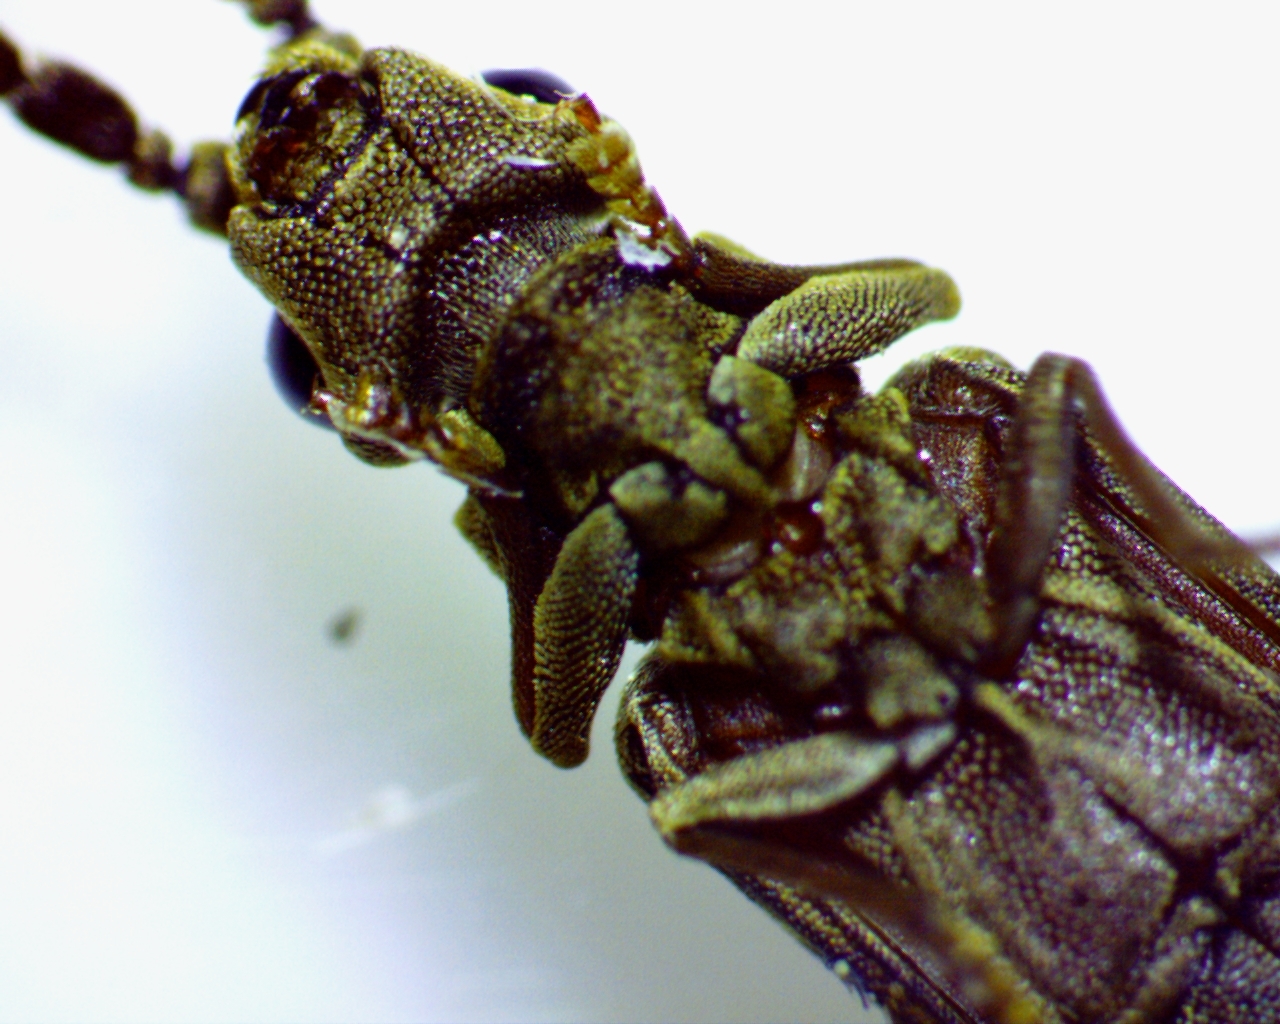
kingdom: Animalia
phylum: Arthropoda
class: Insecta
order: Coleoptera
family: Cupedidae
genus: Tenomerga
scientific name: Tenomerga cinerea
